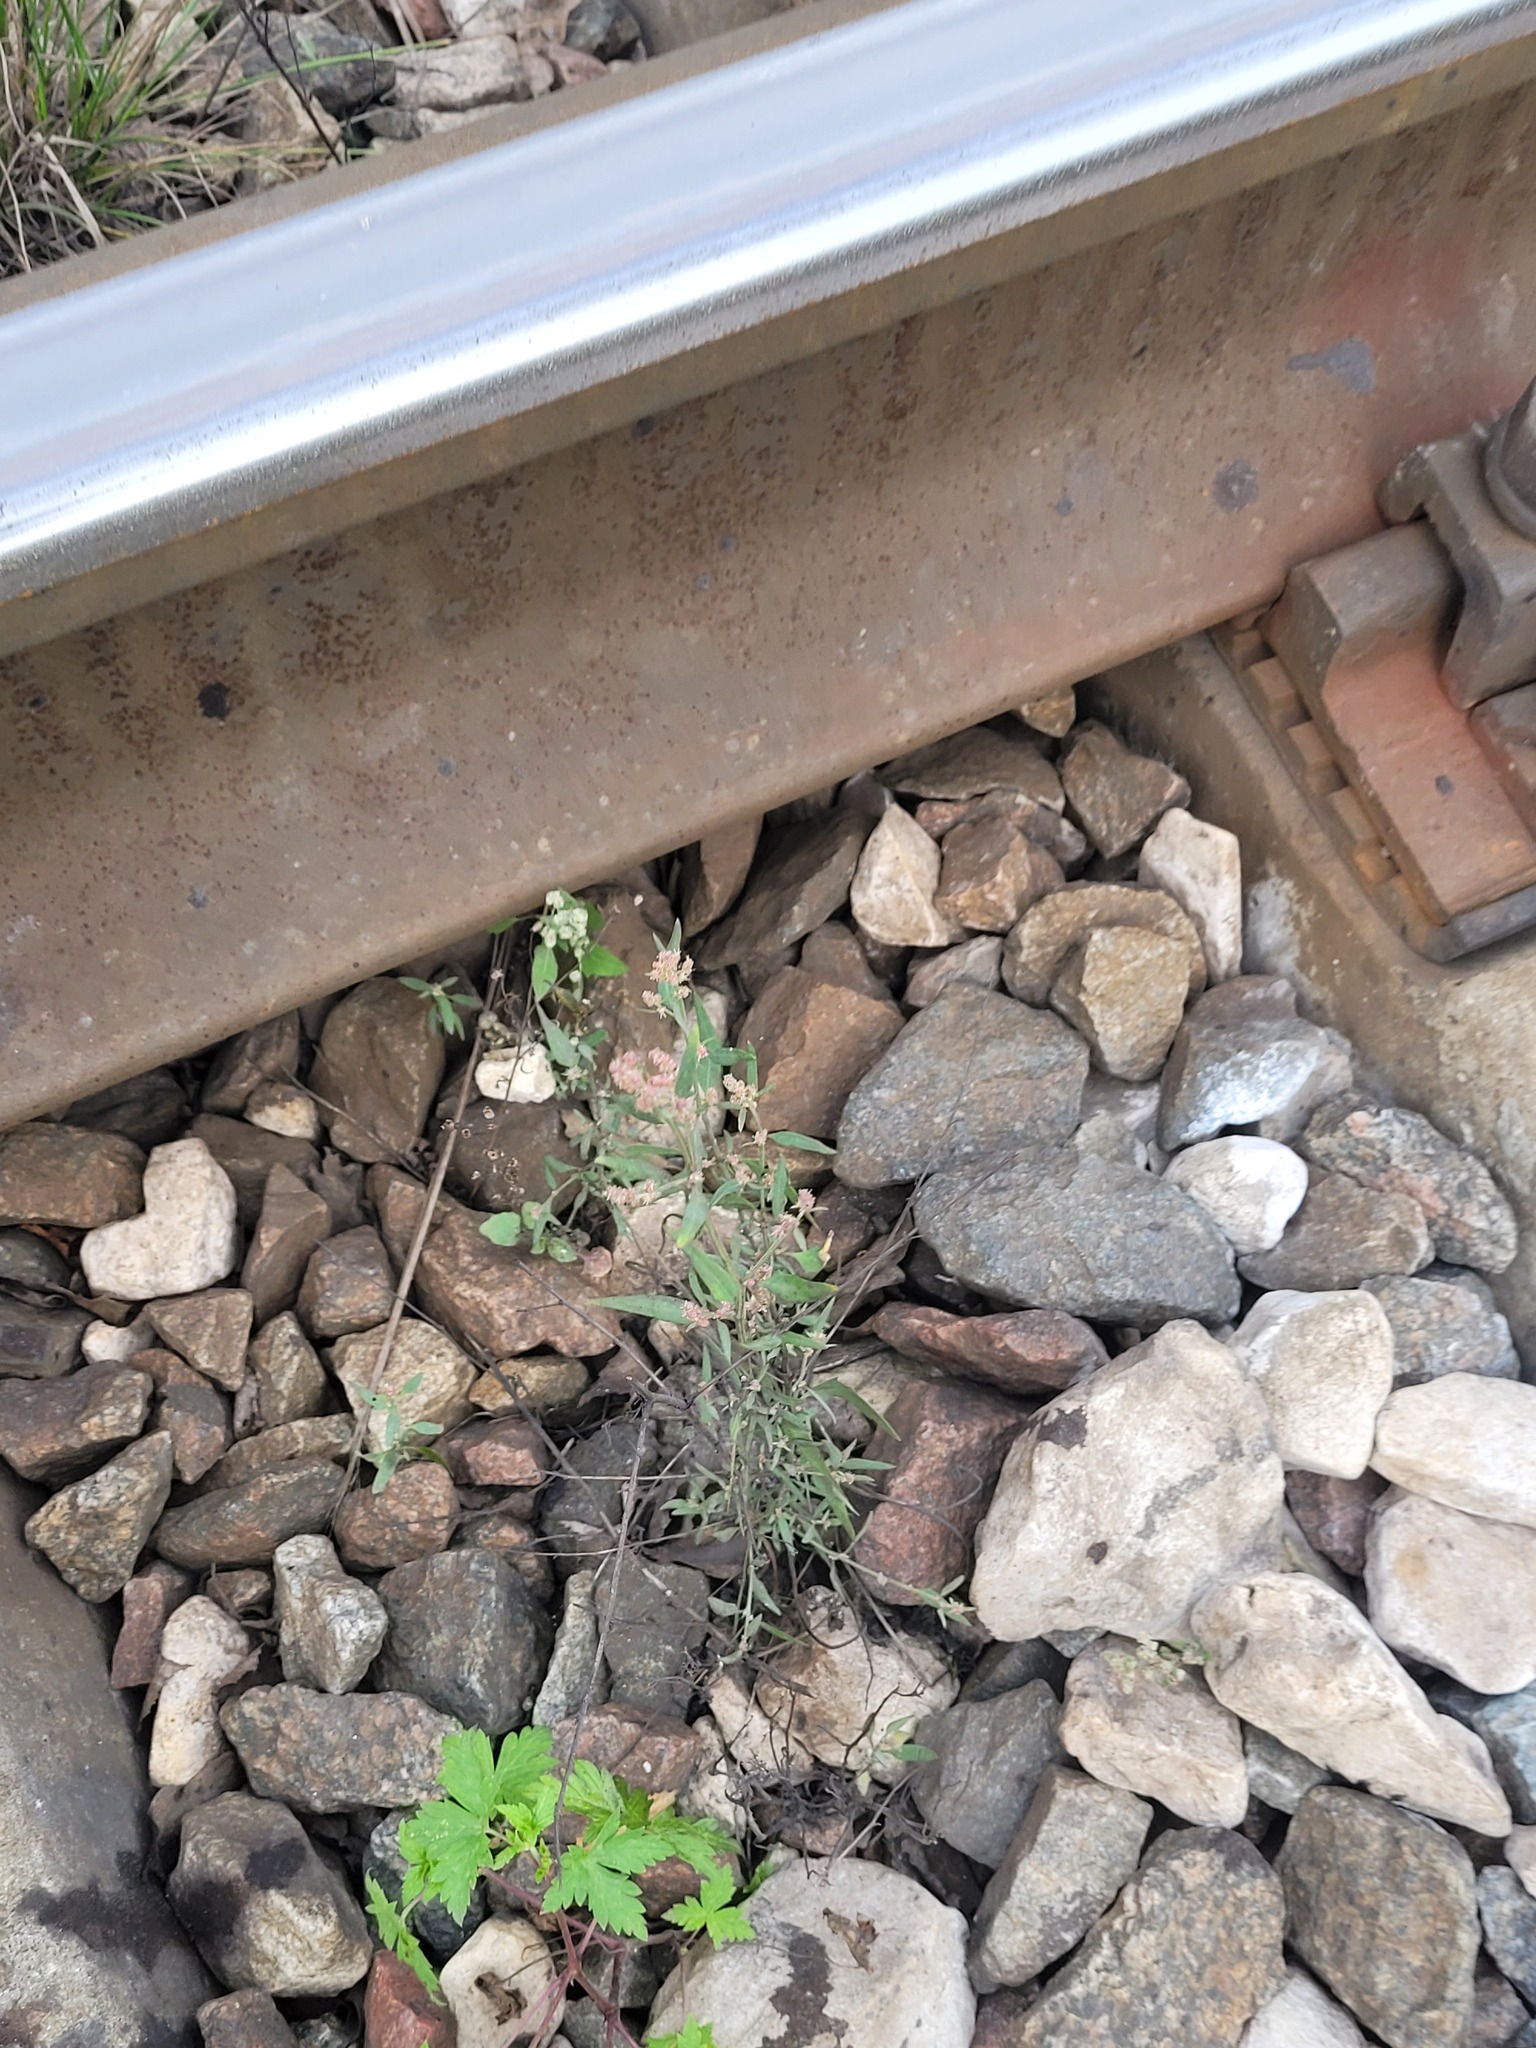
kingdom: Plantae
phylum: Tracheophyta
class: Magnoliopsida
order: Caryophyllales
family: Amaranthaceae
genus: Atriplex
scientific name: Atriplex patula
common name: Common orache
